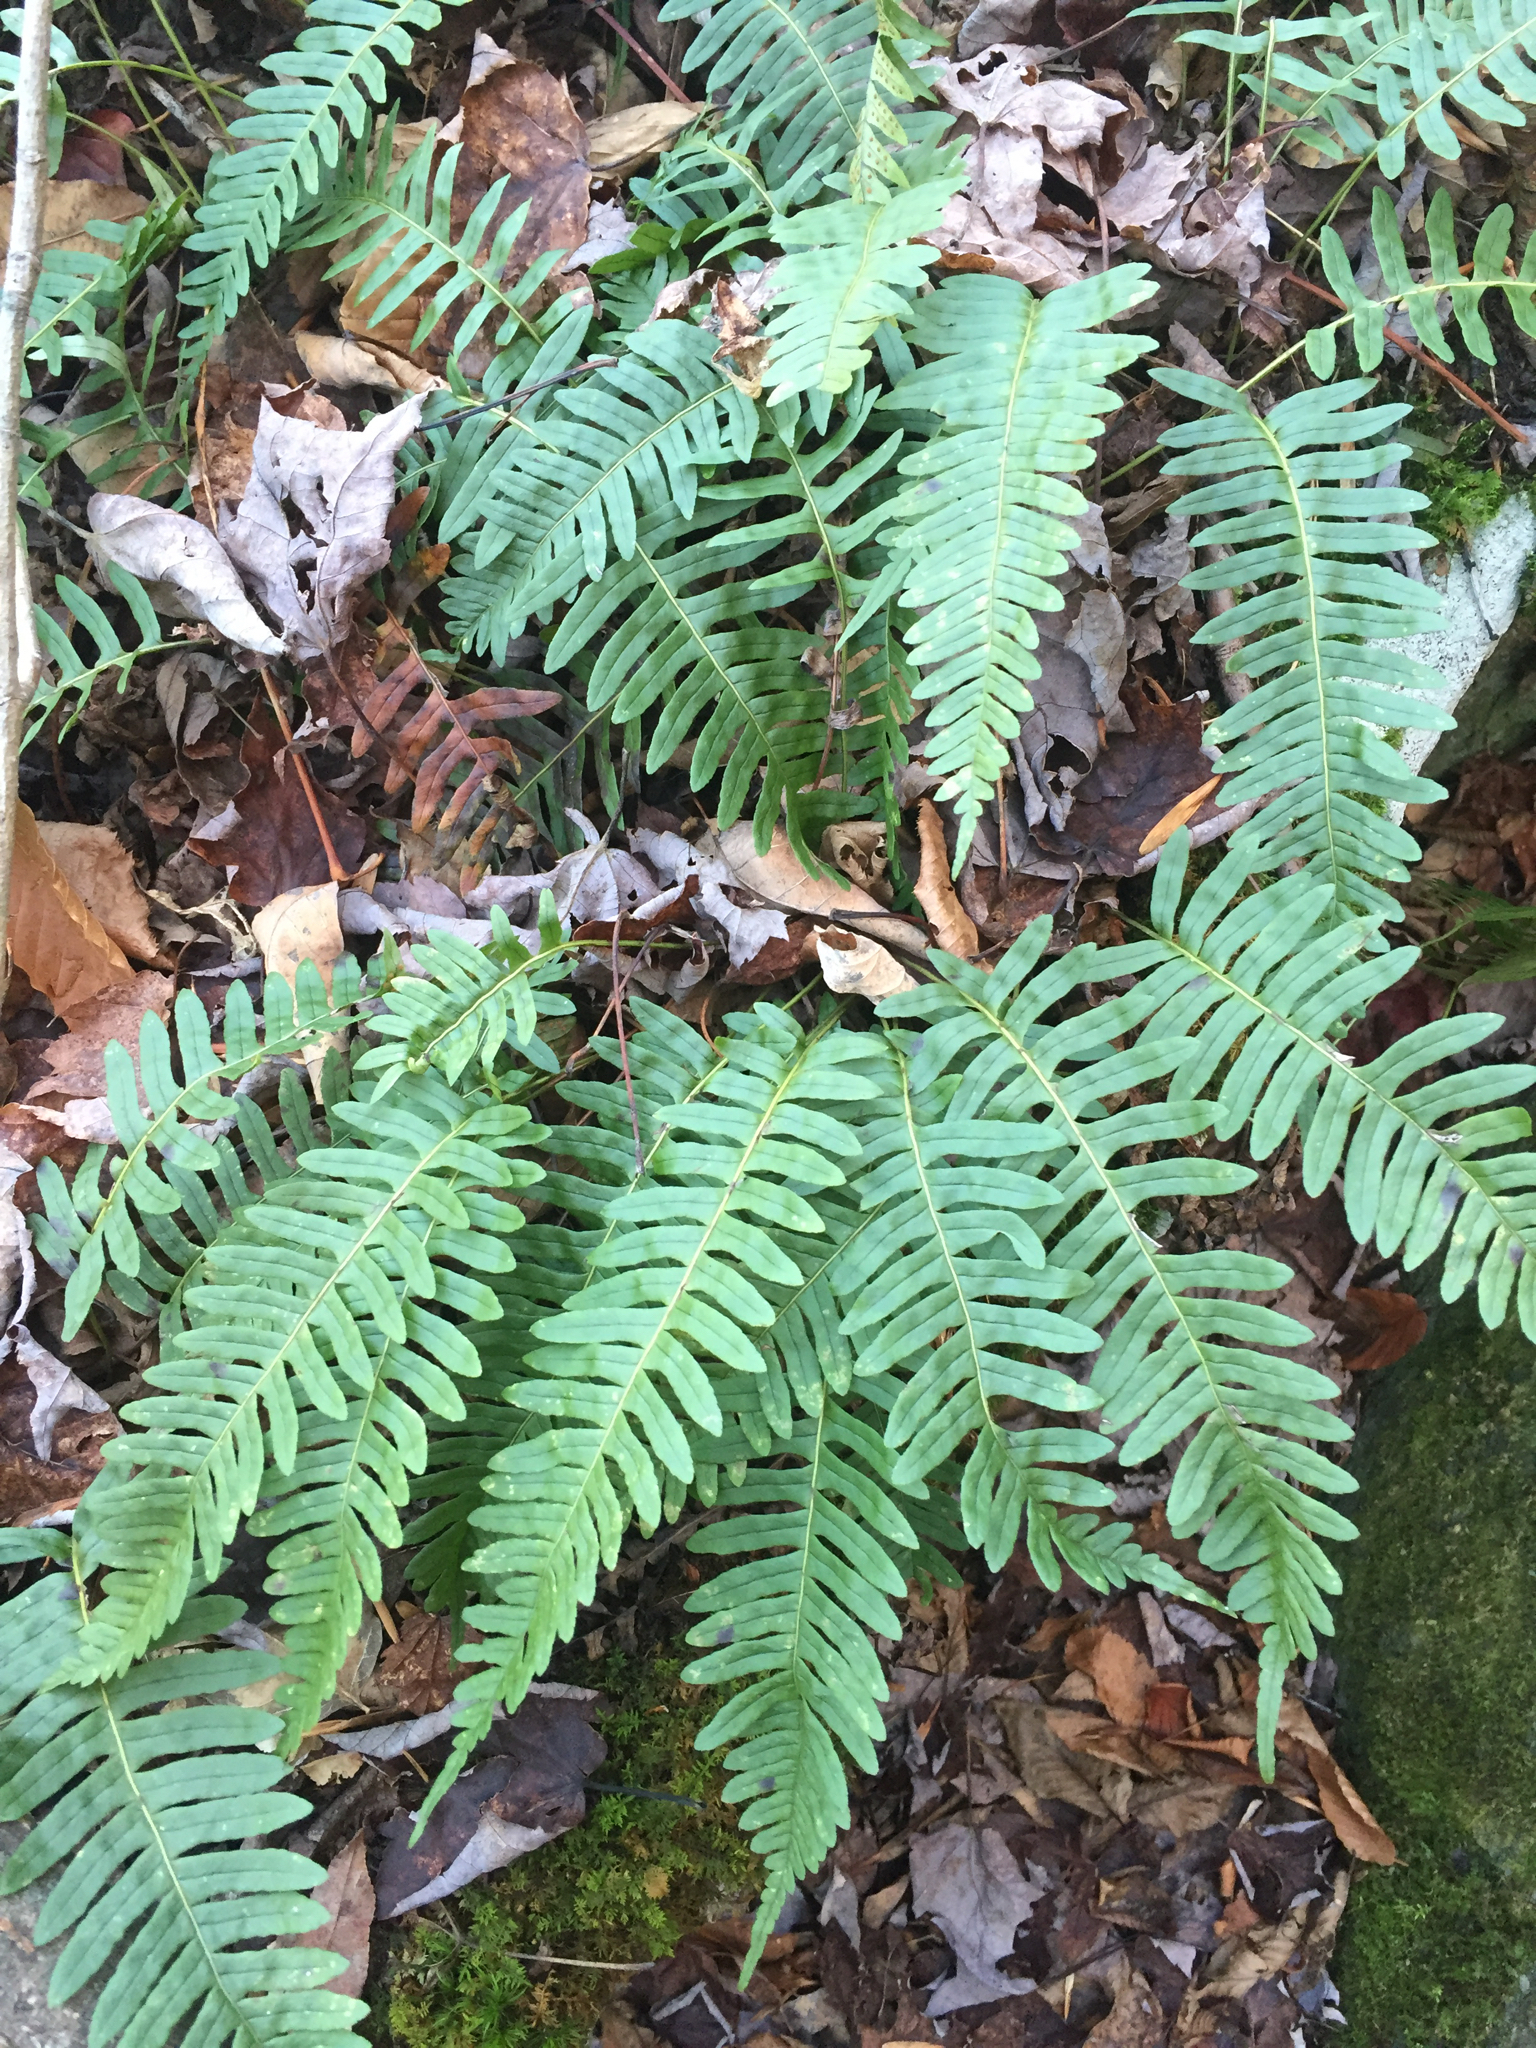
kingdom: Plantae
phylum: Tracheophyta
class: Polypodiopsida
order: Polypodiales
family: Polypodiaceae
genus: Polypodium
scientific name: Polypodium virginianum
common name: American wall fern
